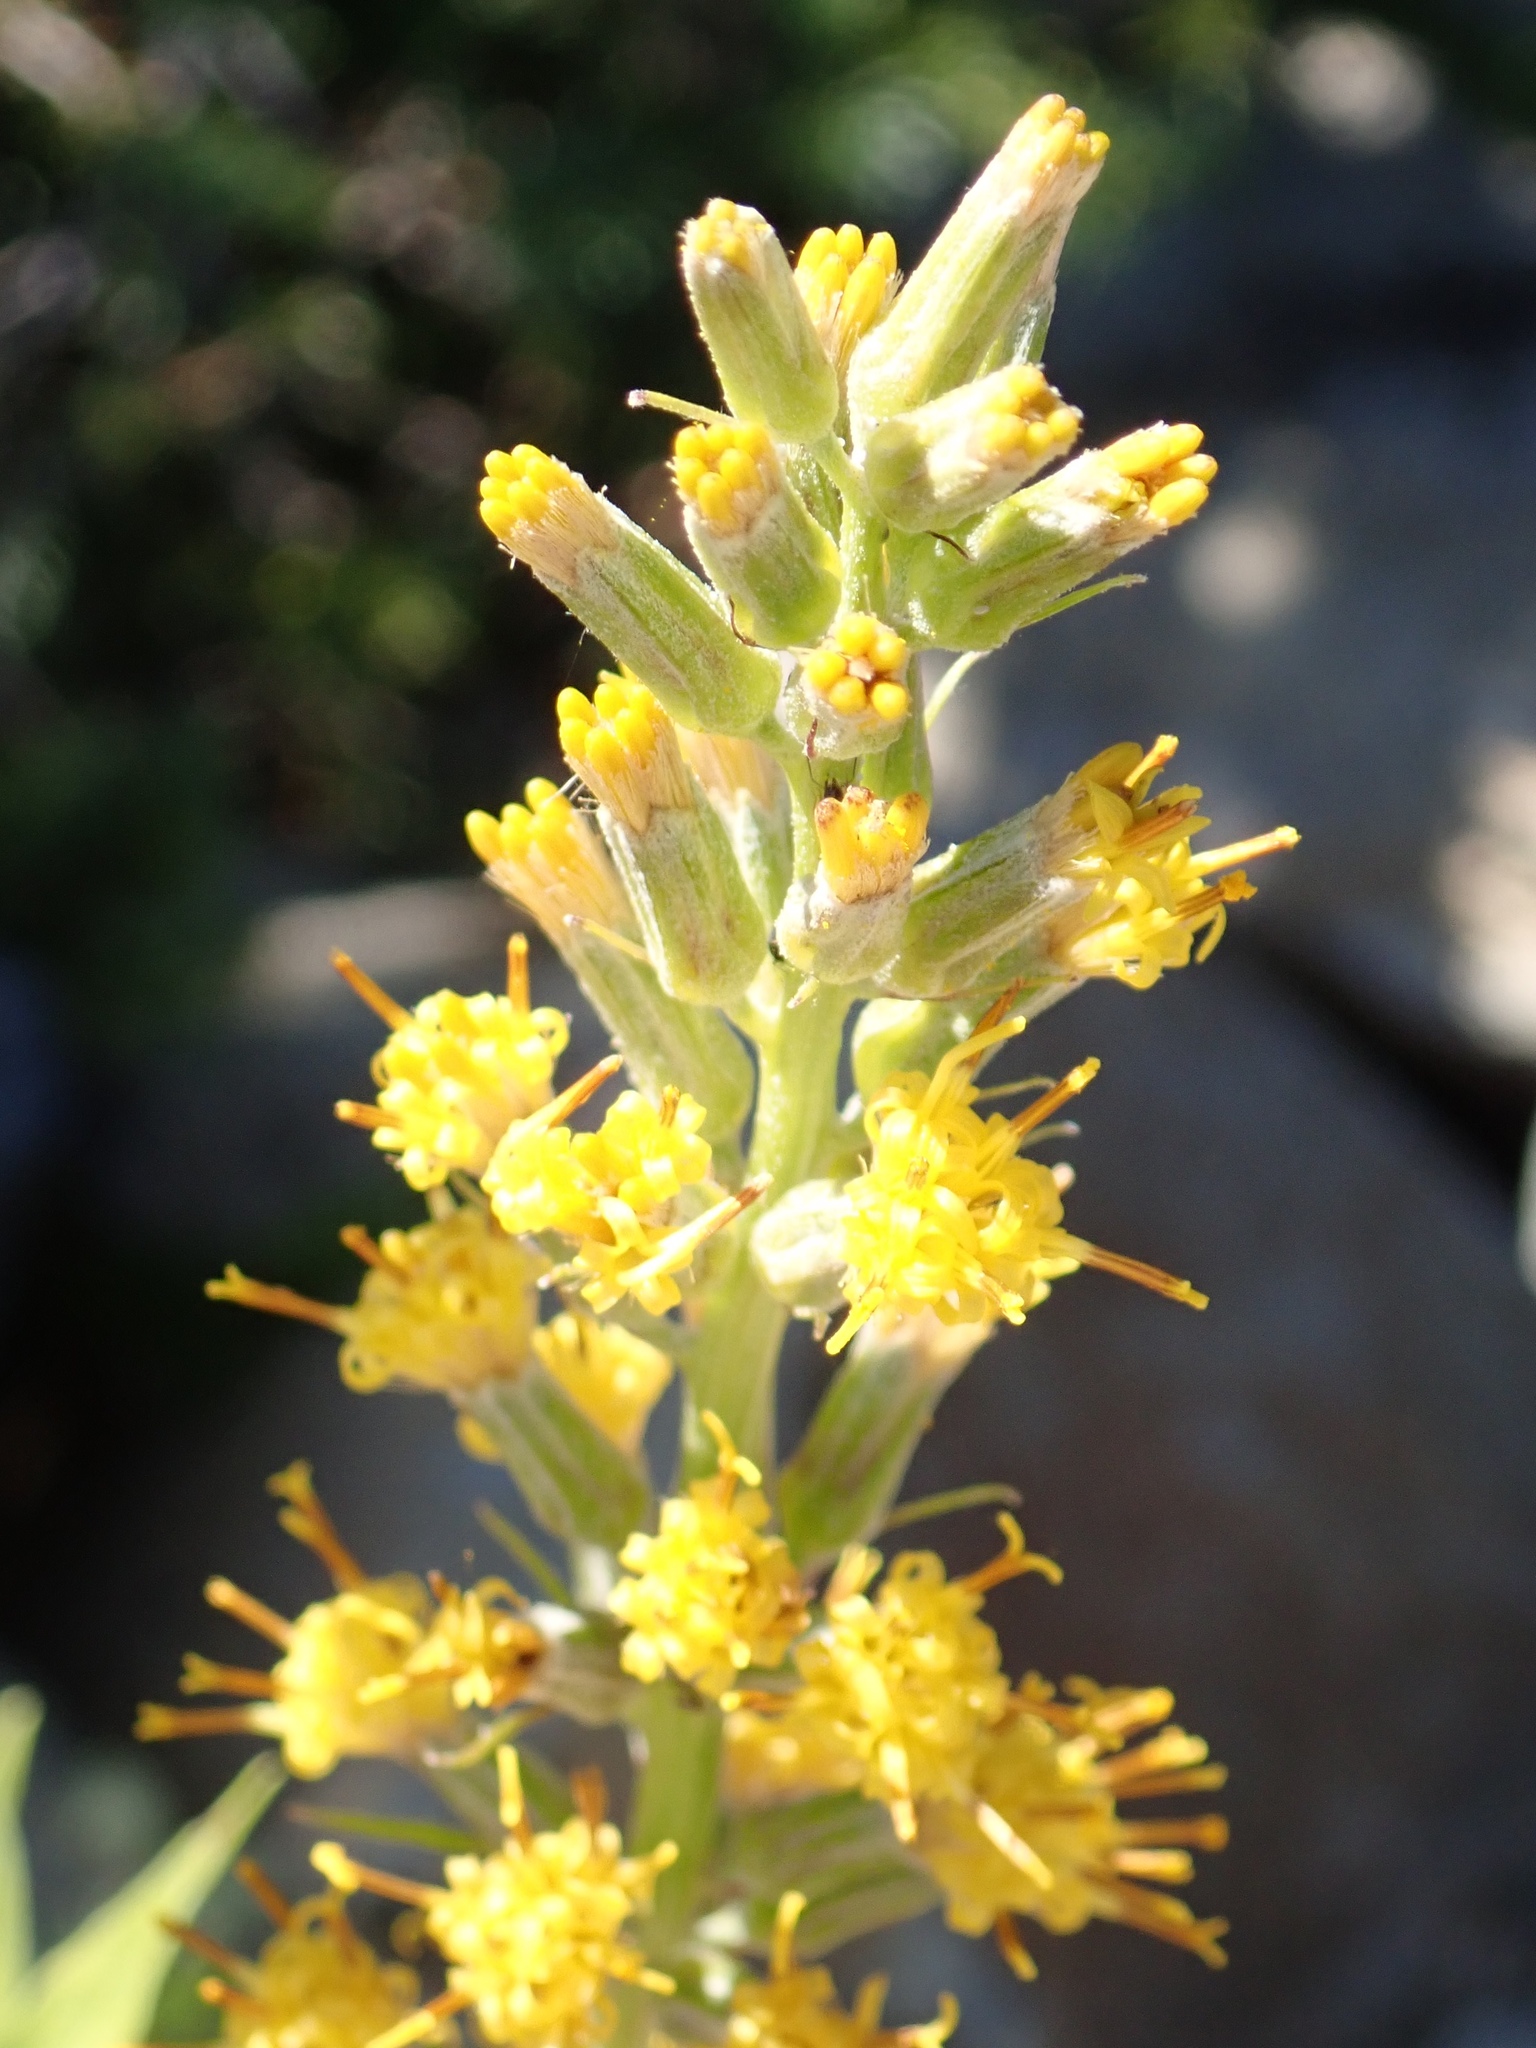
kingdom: Plantae
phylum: Tracheophyta
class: Magnoliopsida
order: Asterales
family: Asteraceae
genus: Rainiera
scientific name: Rainiera stricta
